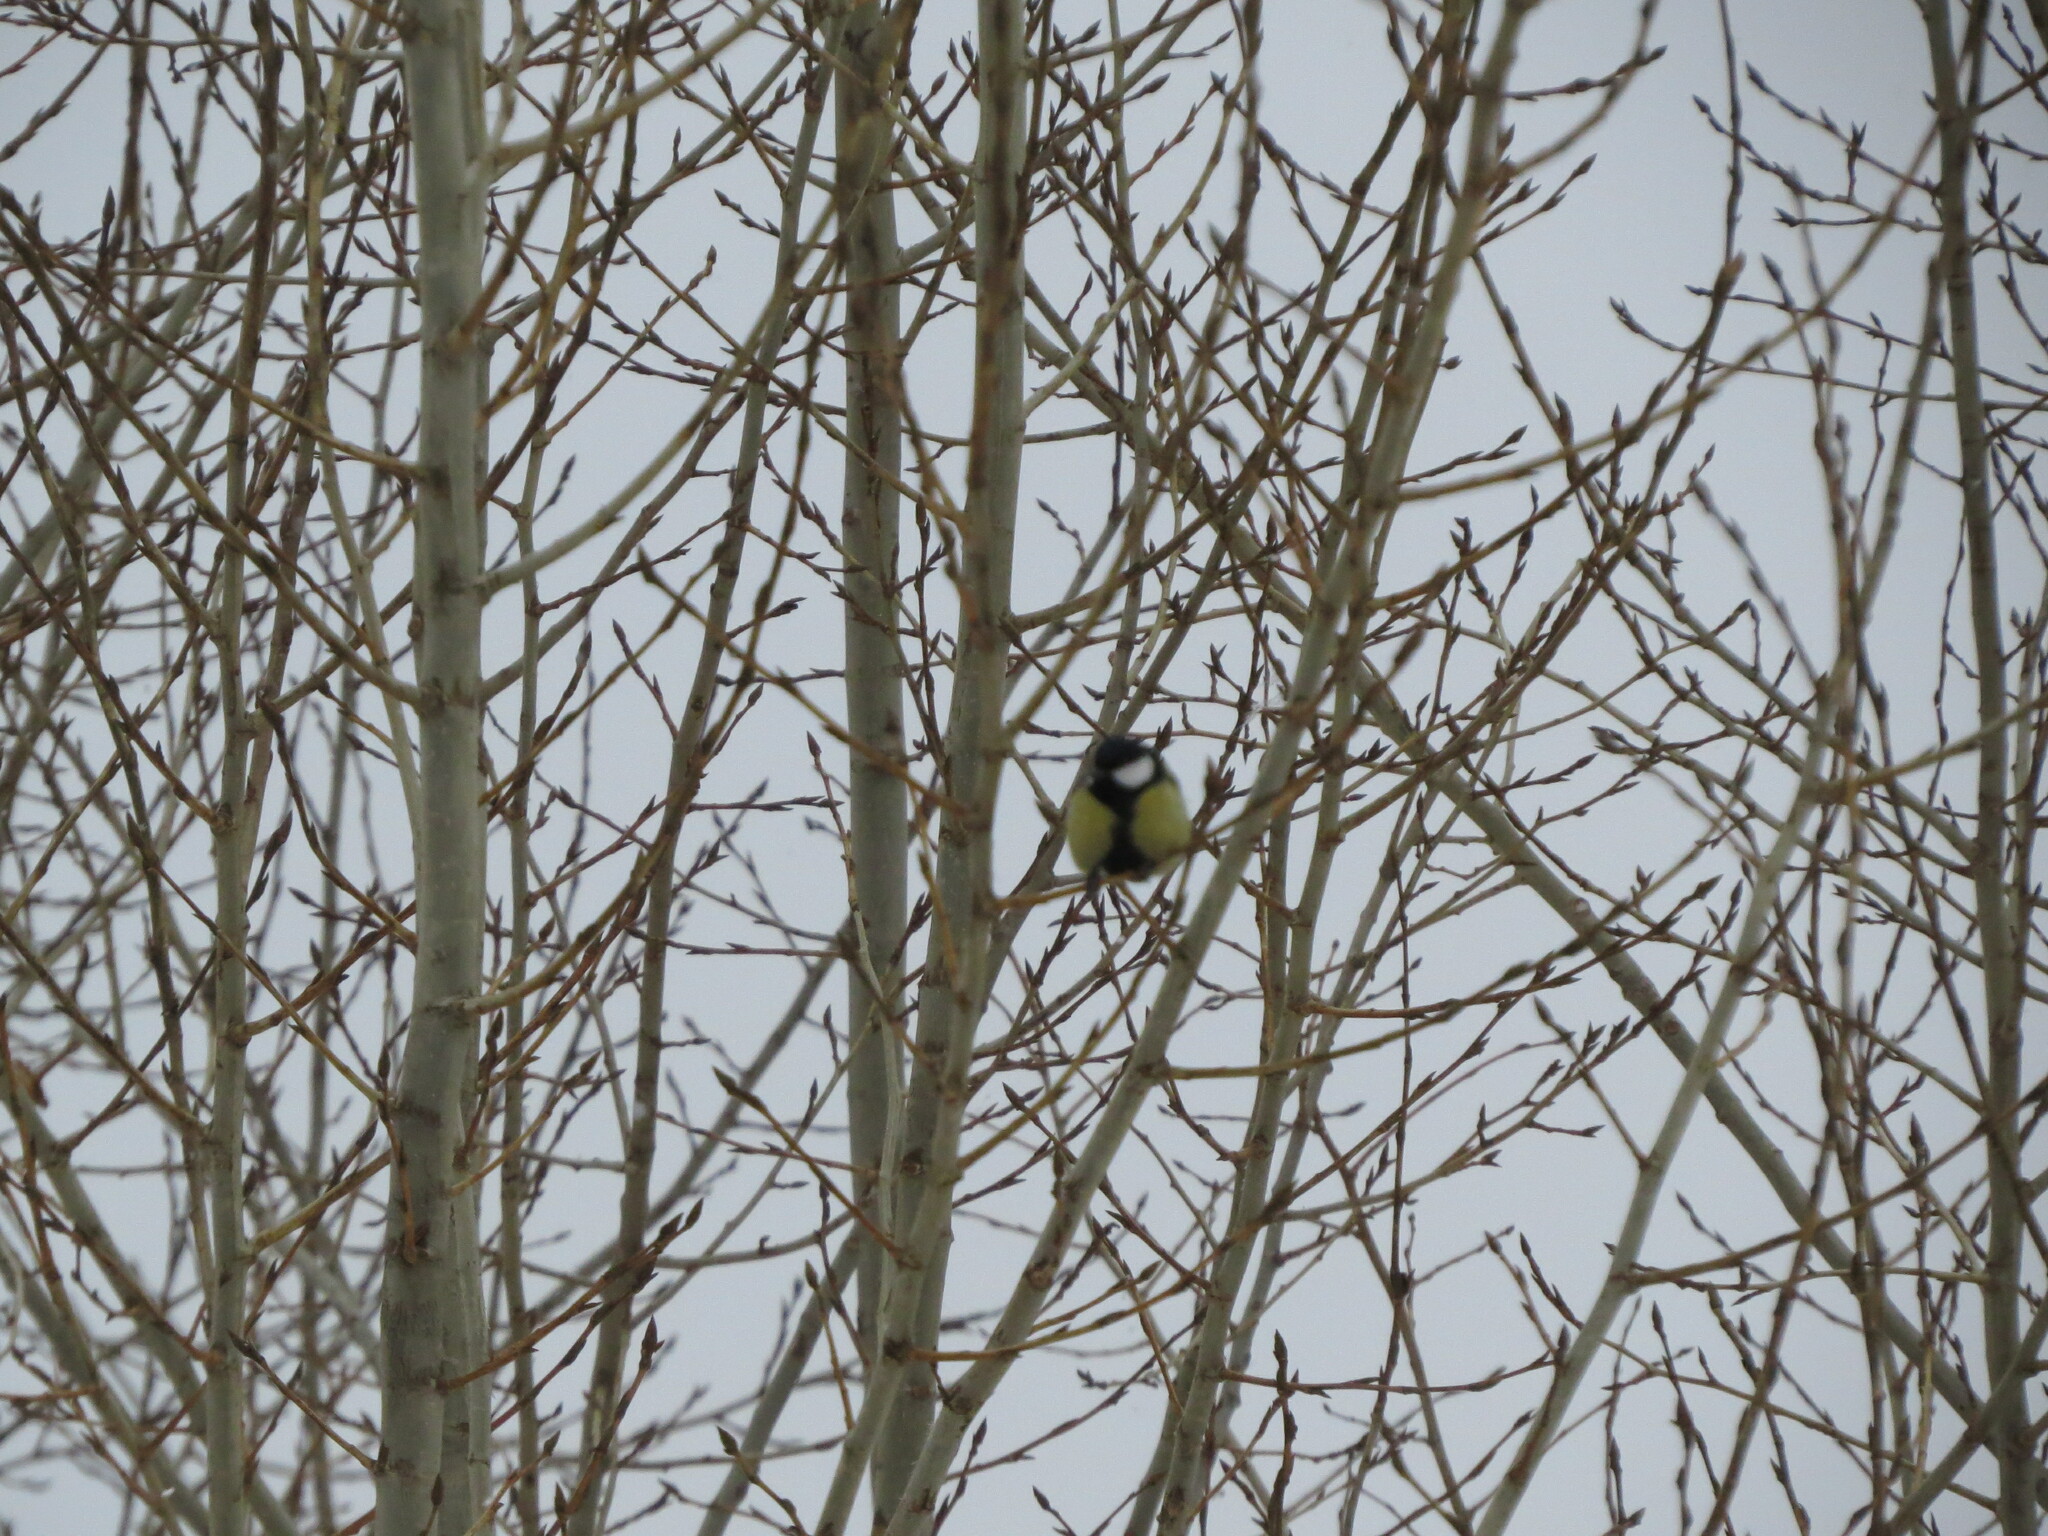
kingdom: Animalia
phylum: Chordata
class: Aves
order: Passeriformes
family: Paridae
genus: Parus
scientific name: Parus major
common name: Great tit
